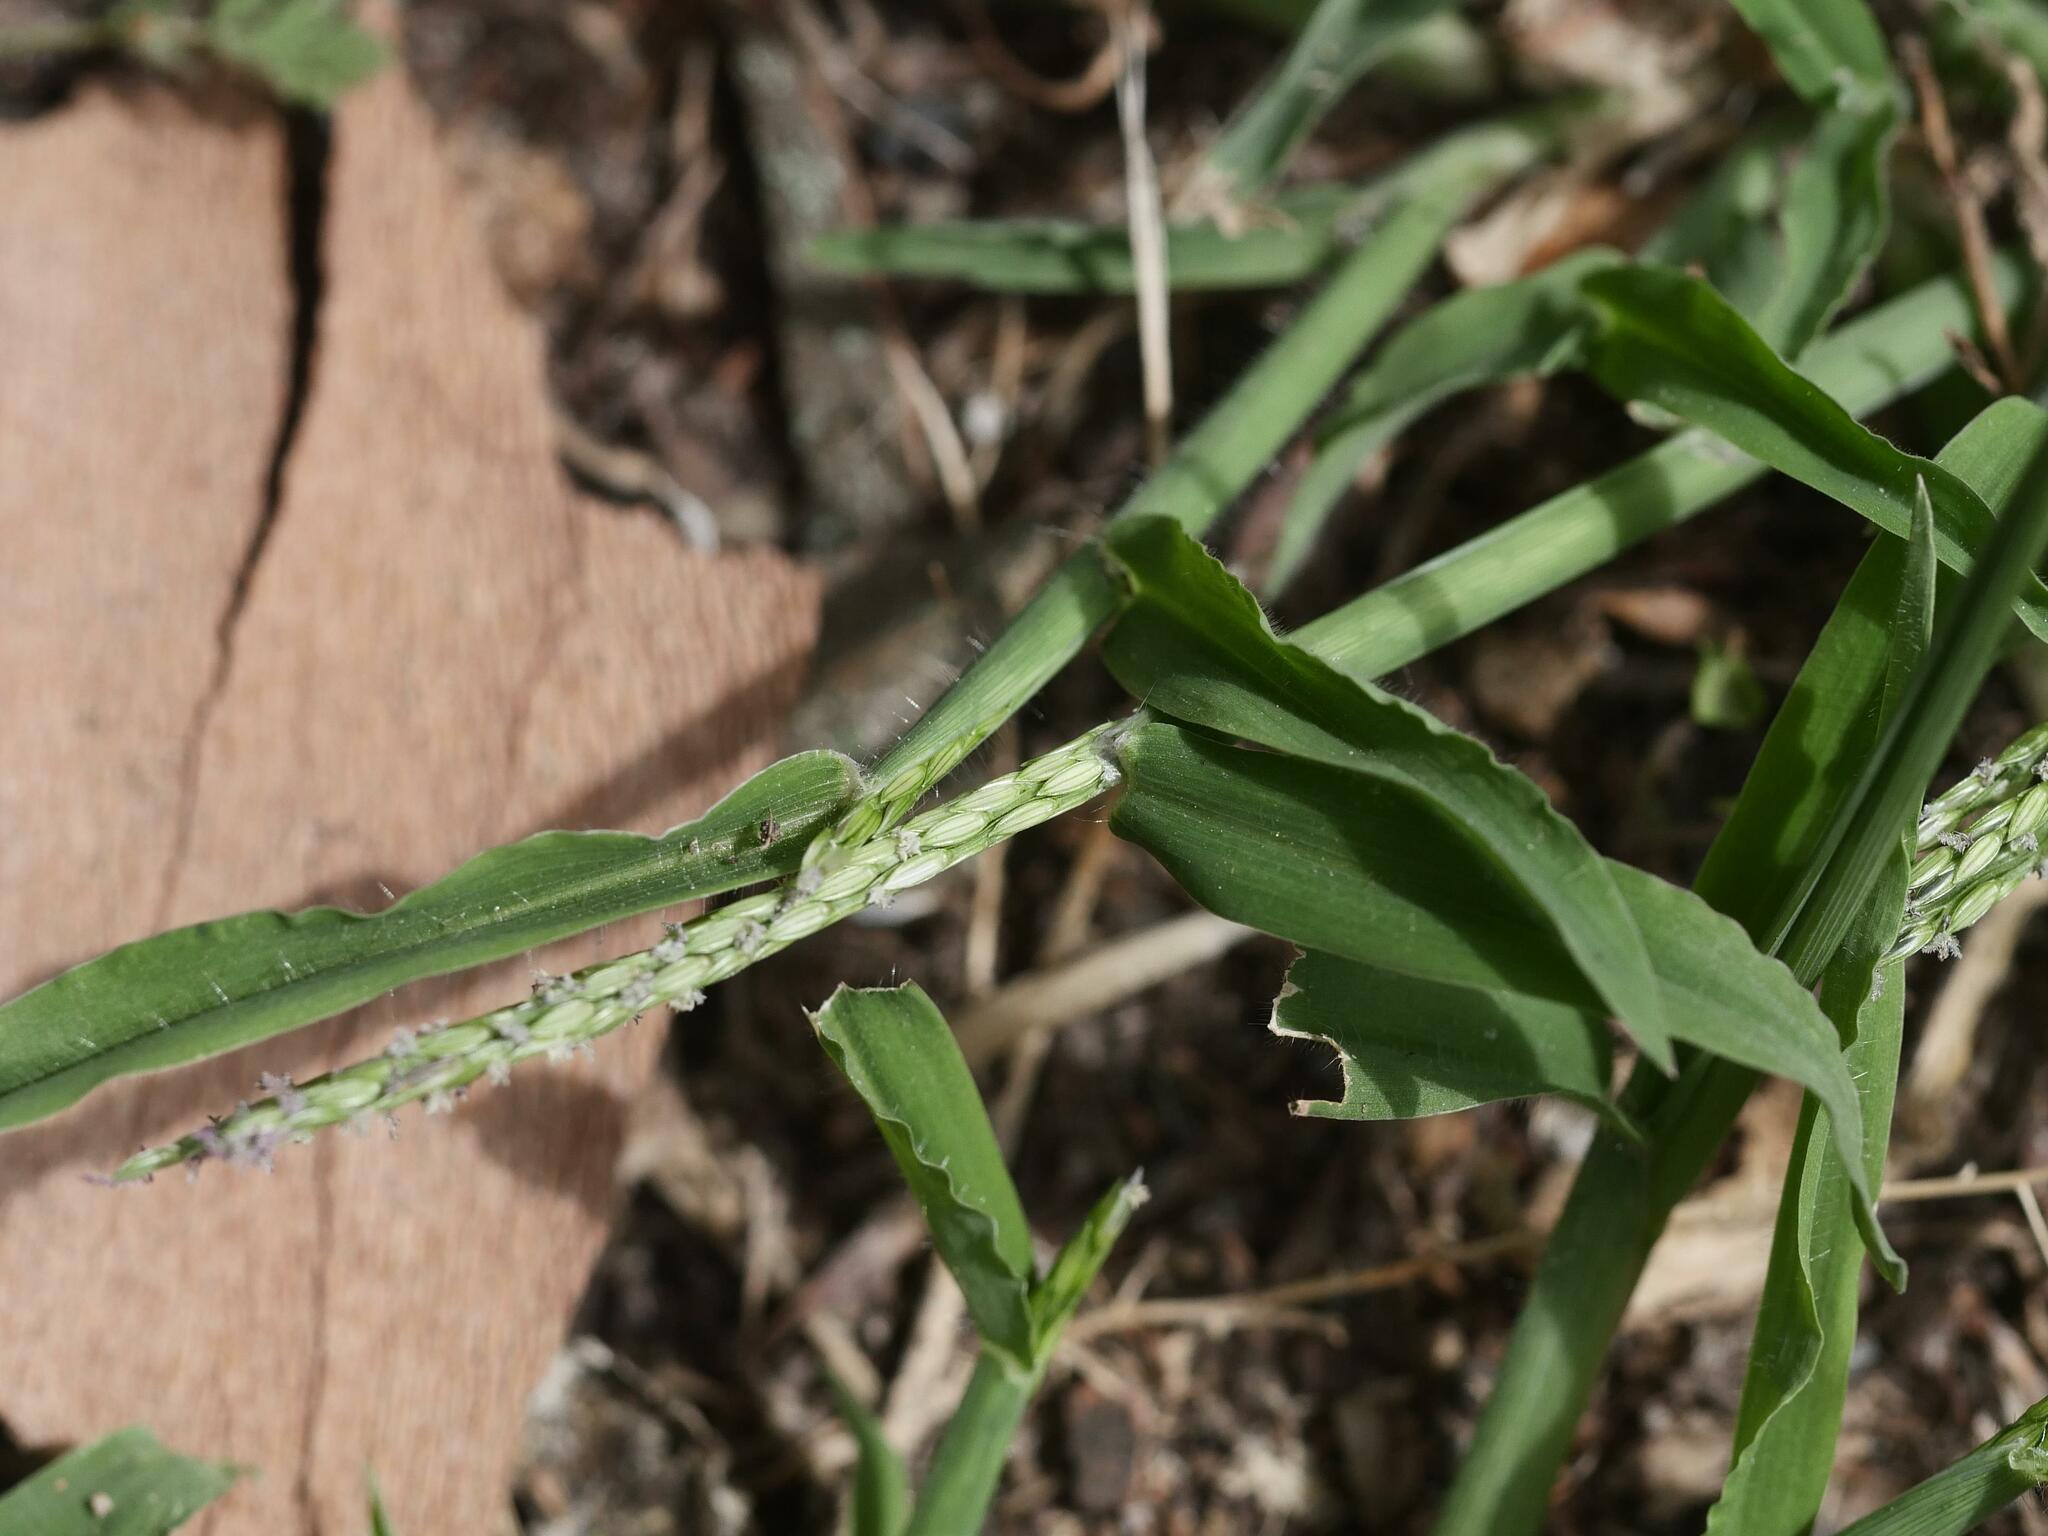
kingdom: Plantae
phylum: Tracheophyta
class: Liliopsida
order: Poales
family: Poaceae
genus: Digitaria
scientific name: Digitaria sanguinalis
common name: Hairy crabgrass
